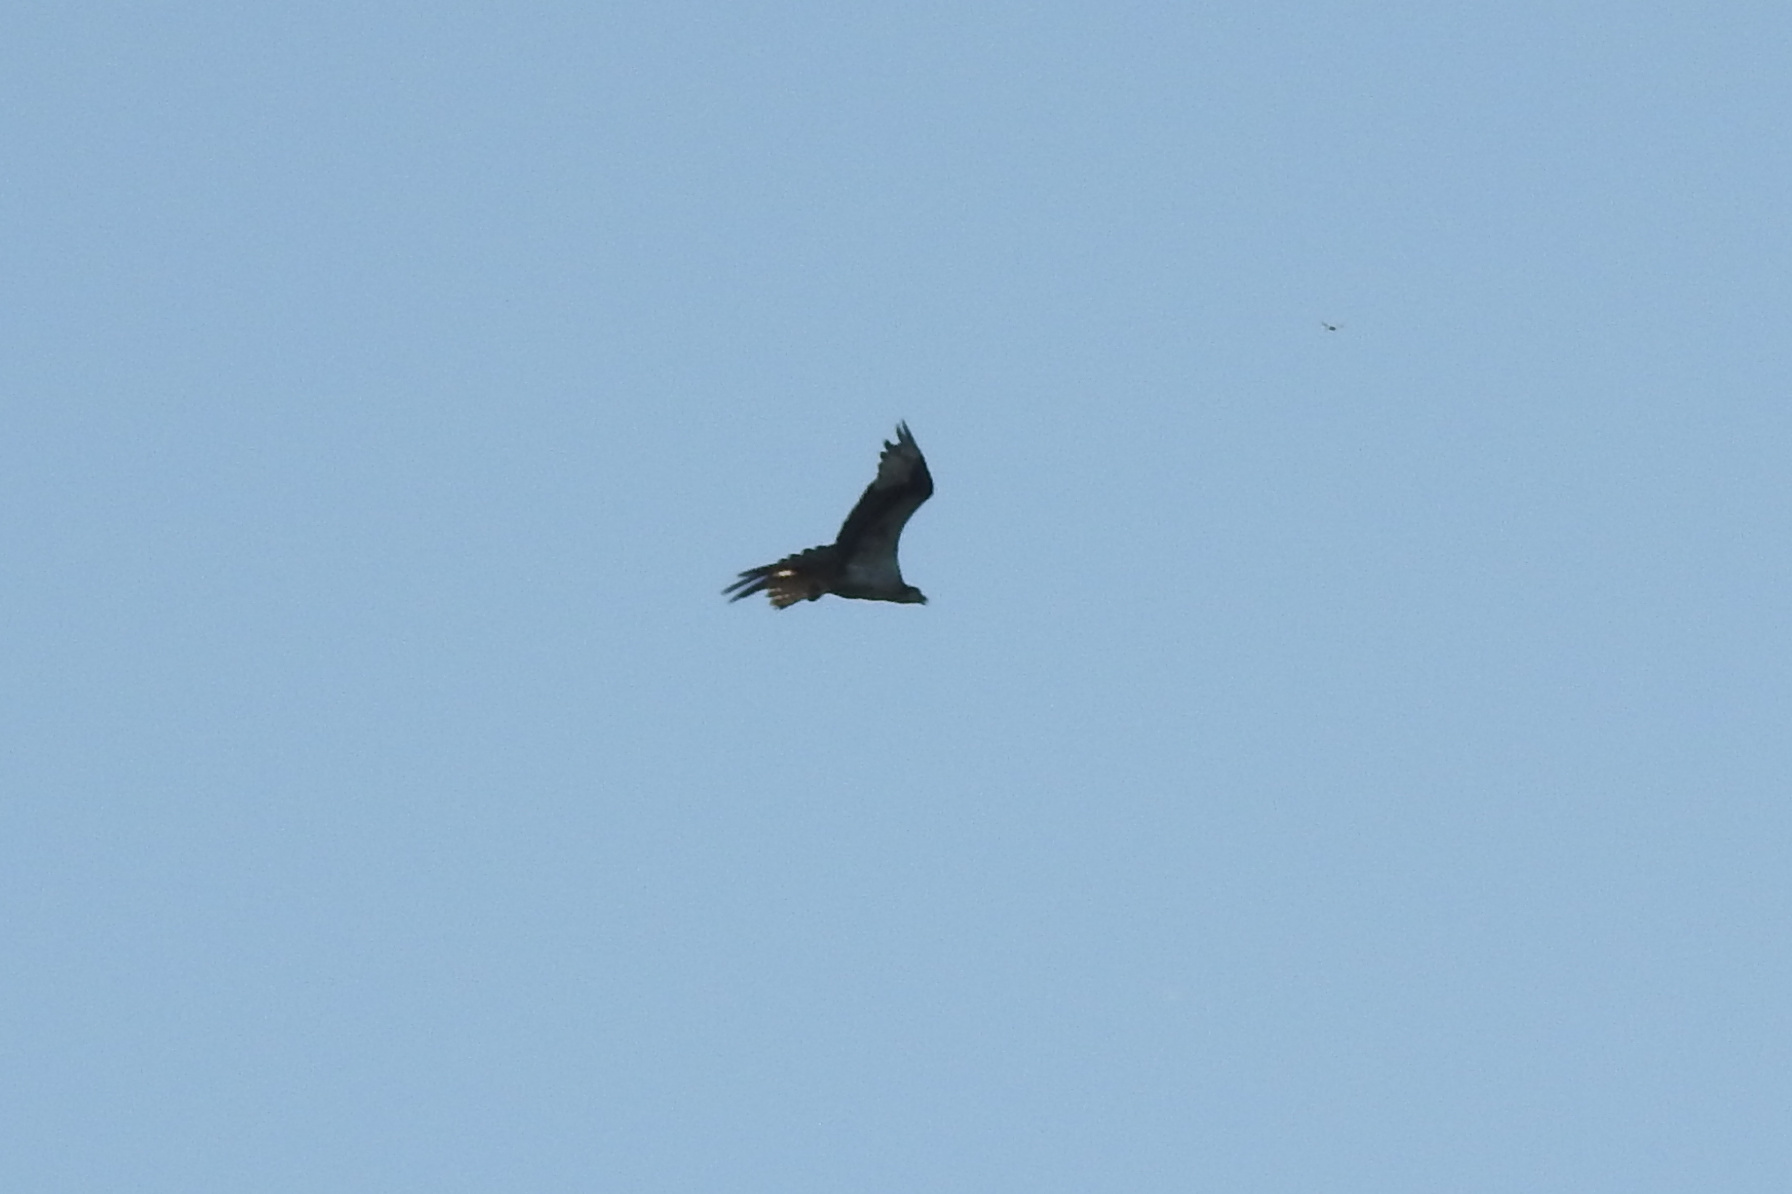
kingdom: Animalia
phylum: Chordata
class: Aves
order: Accipitriformes
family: Pandionidae
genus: Pandion
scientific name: Pandion haliaetus
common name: Osprey
